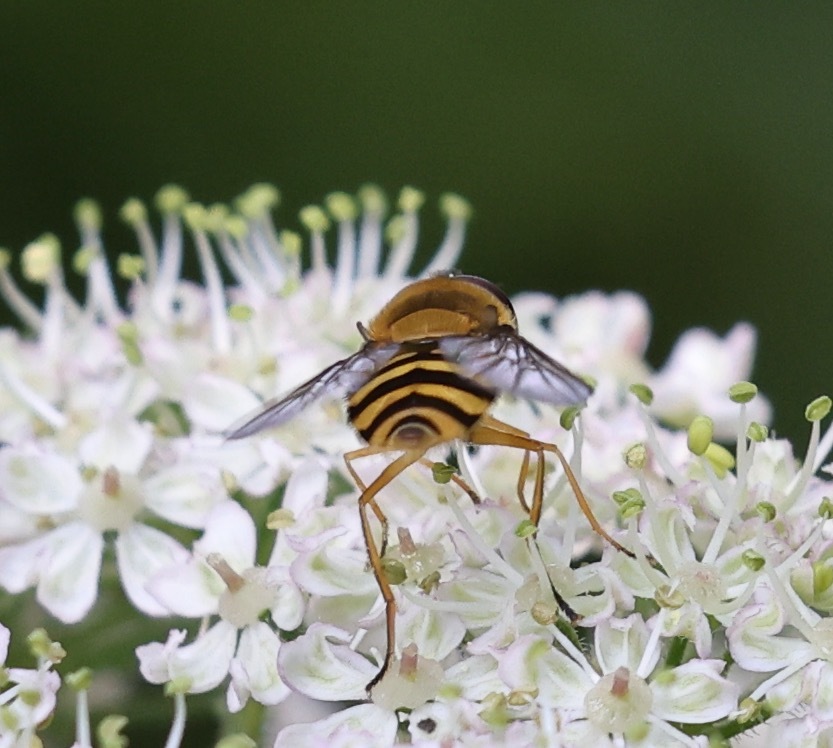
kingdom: Animalia
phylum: Arthropoda
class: Insecta
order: Diptera
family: Syrphidae
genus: Syrphus
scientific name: Syrphus ribesii
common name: Common flower fly
